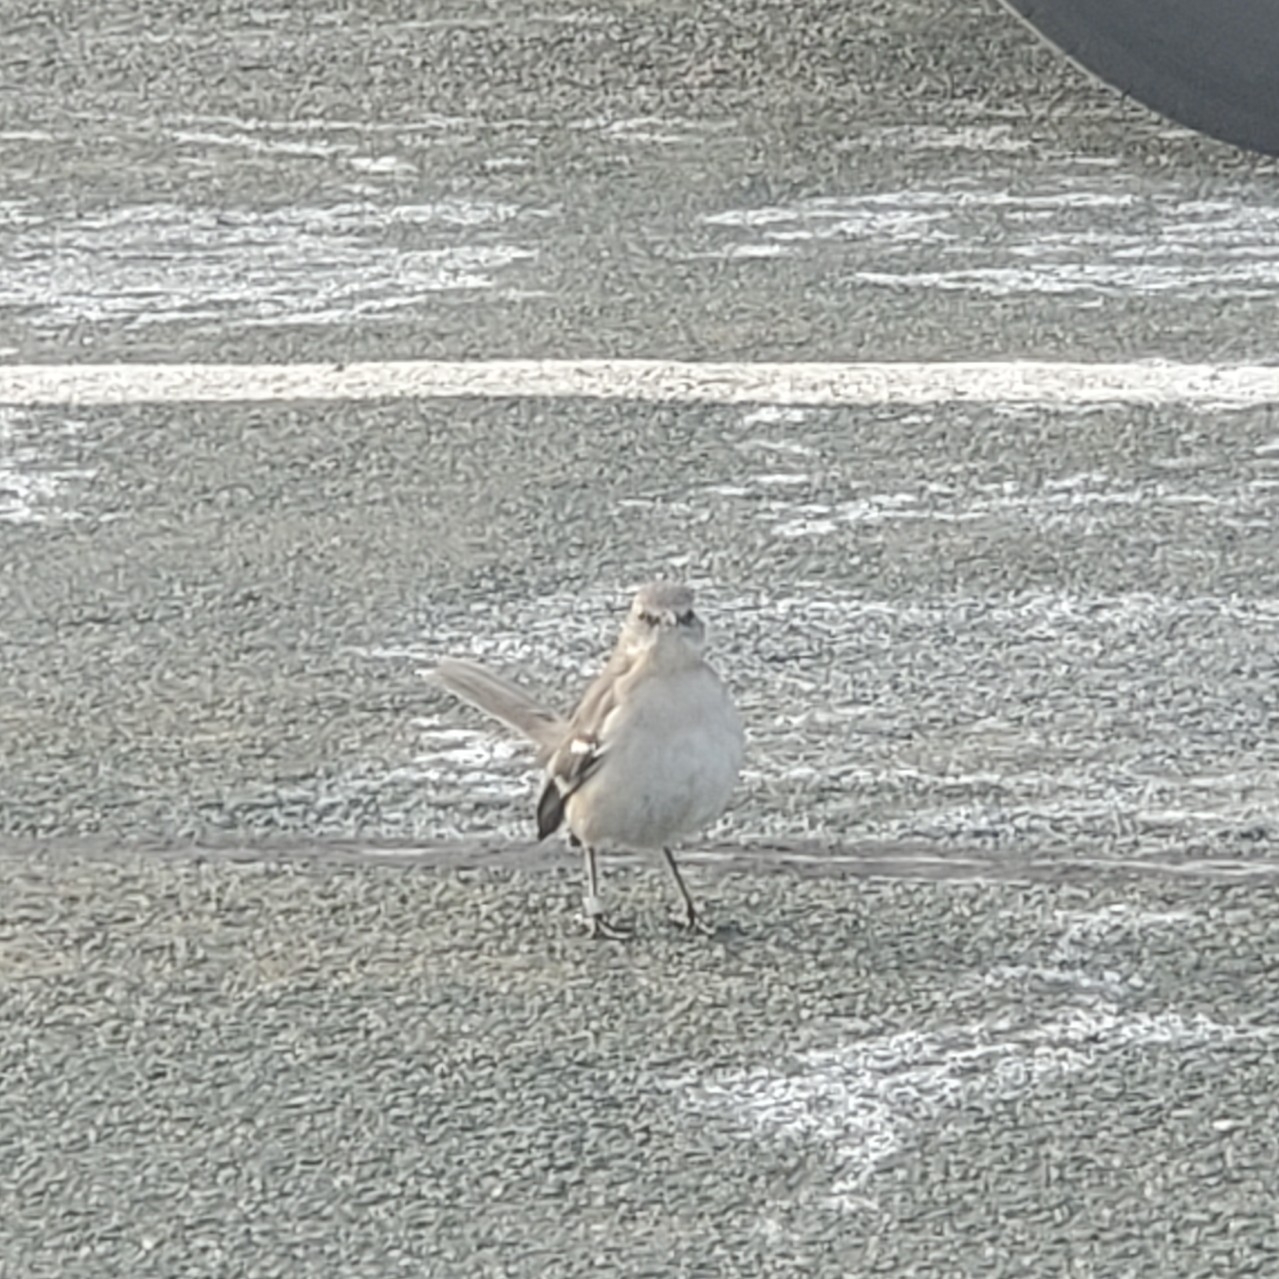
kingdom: Animalia
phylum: Chordata
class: Aves
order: Passeriformes
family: Mimidae
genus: Mimus
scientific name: Mimus polyglottos
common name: Northern mockingbird
